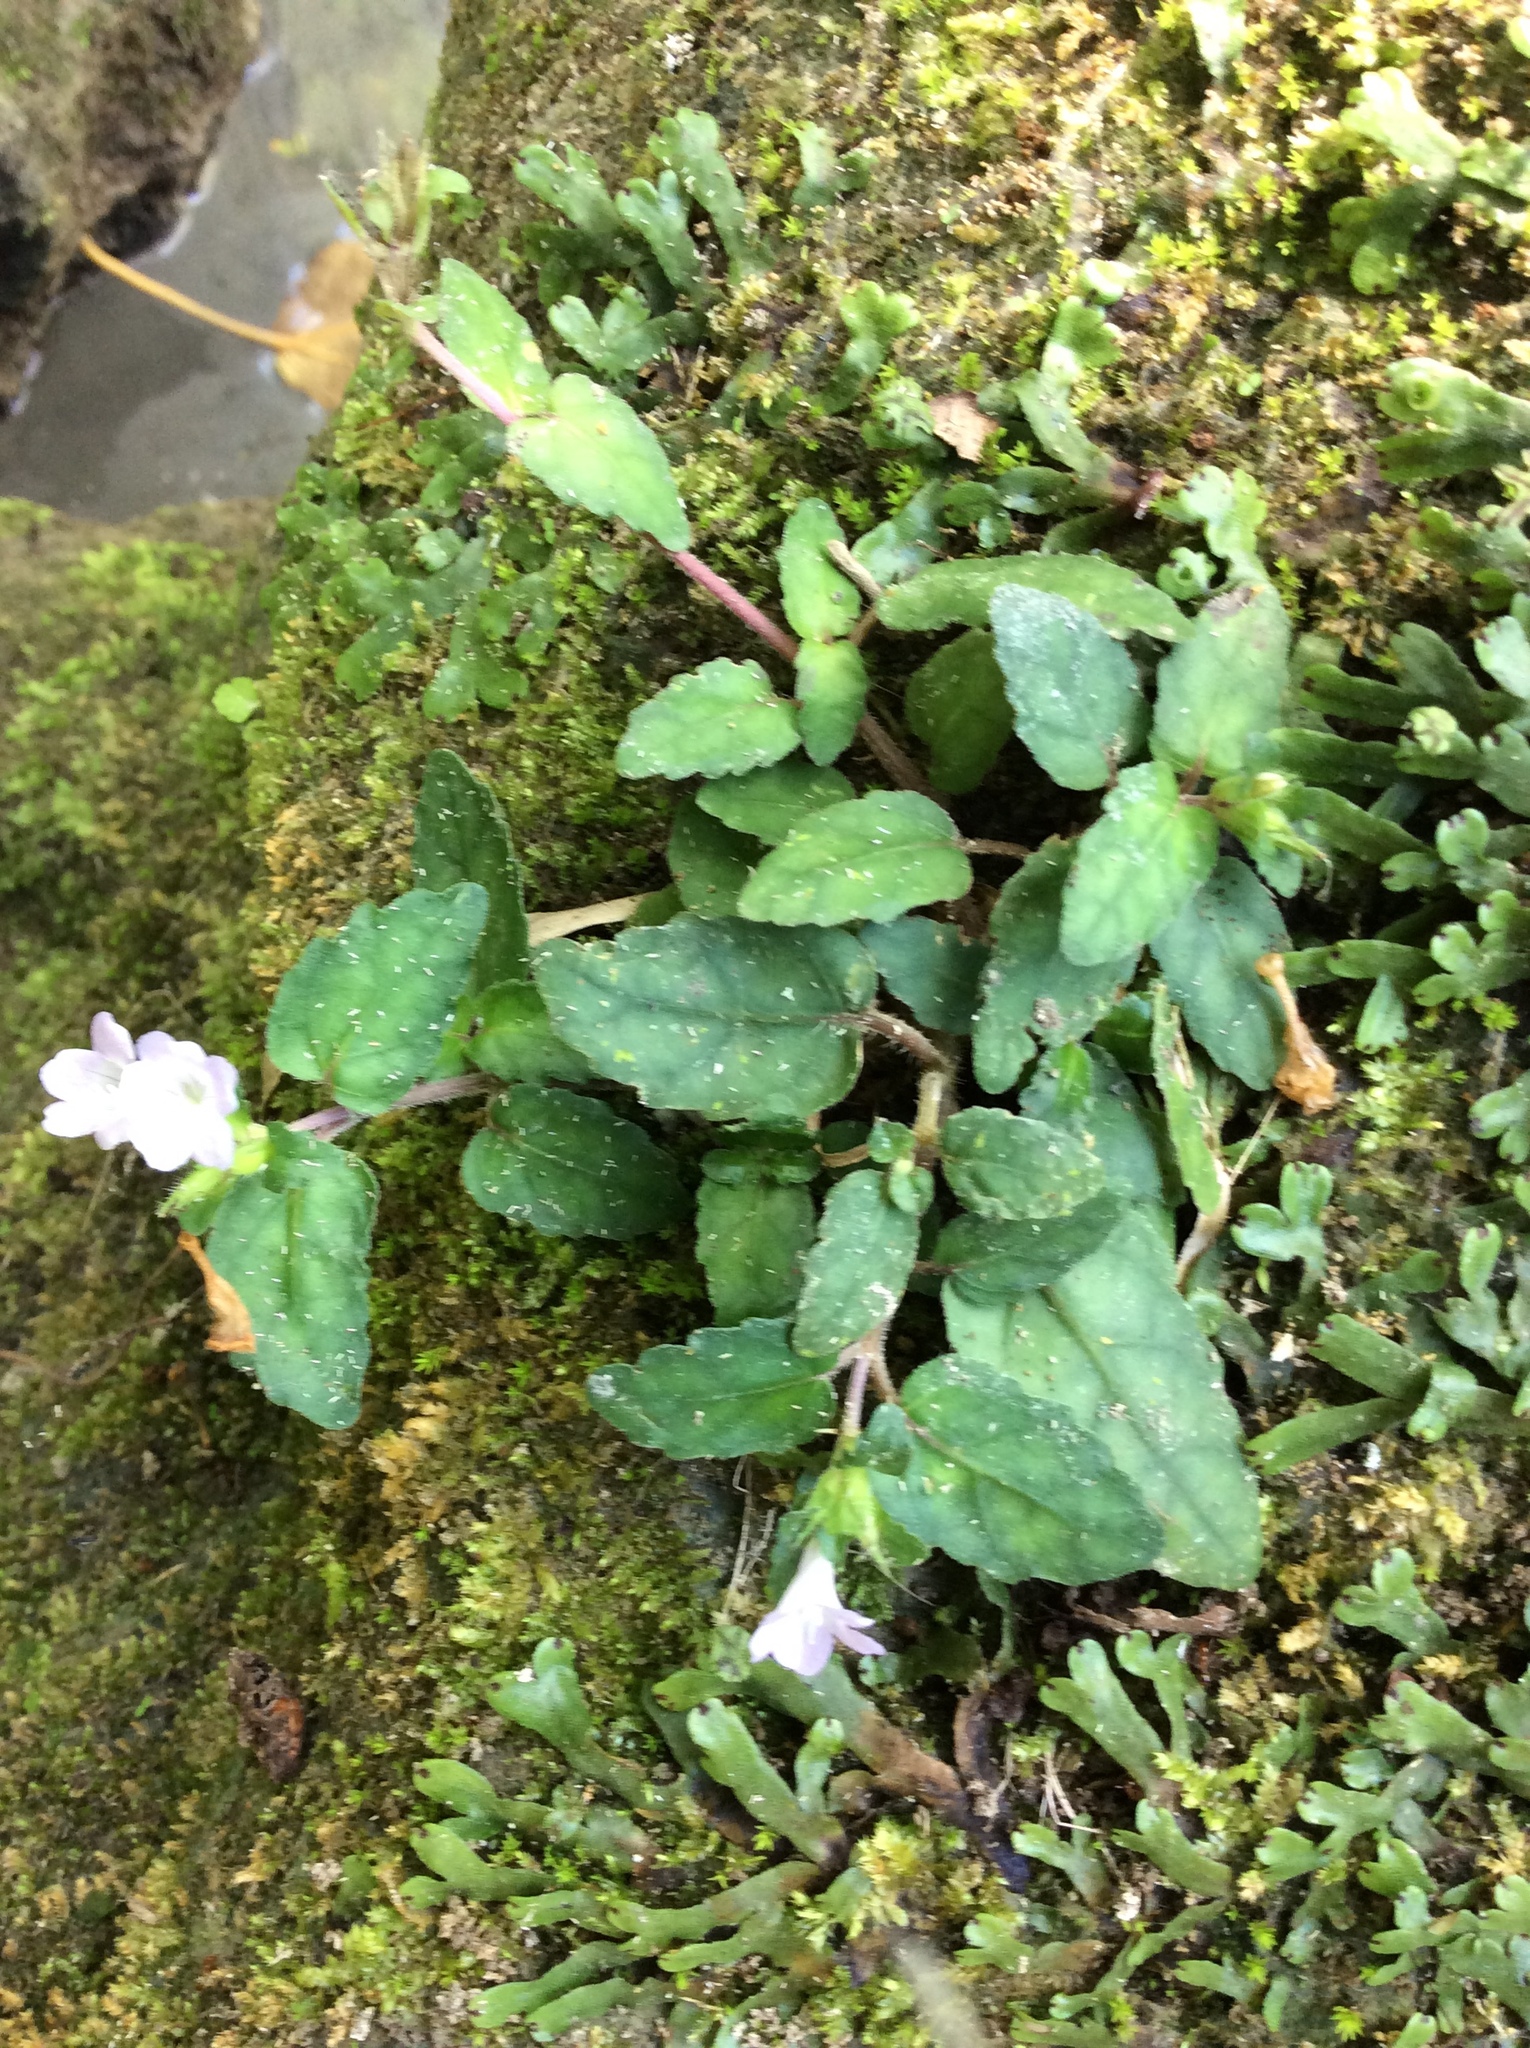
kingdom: Plantae
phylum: Tracheophyta
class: Magnoliopsida
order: Lamiales
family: Acanthaceae
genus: Strobilanthes
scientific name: Strobilanthes reptans
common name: Acanthaceae
